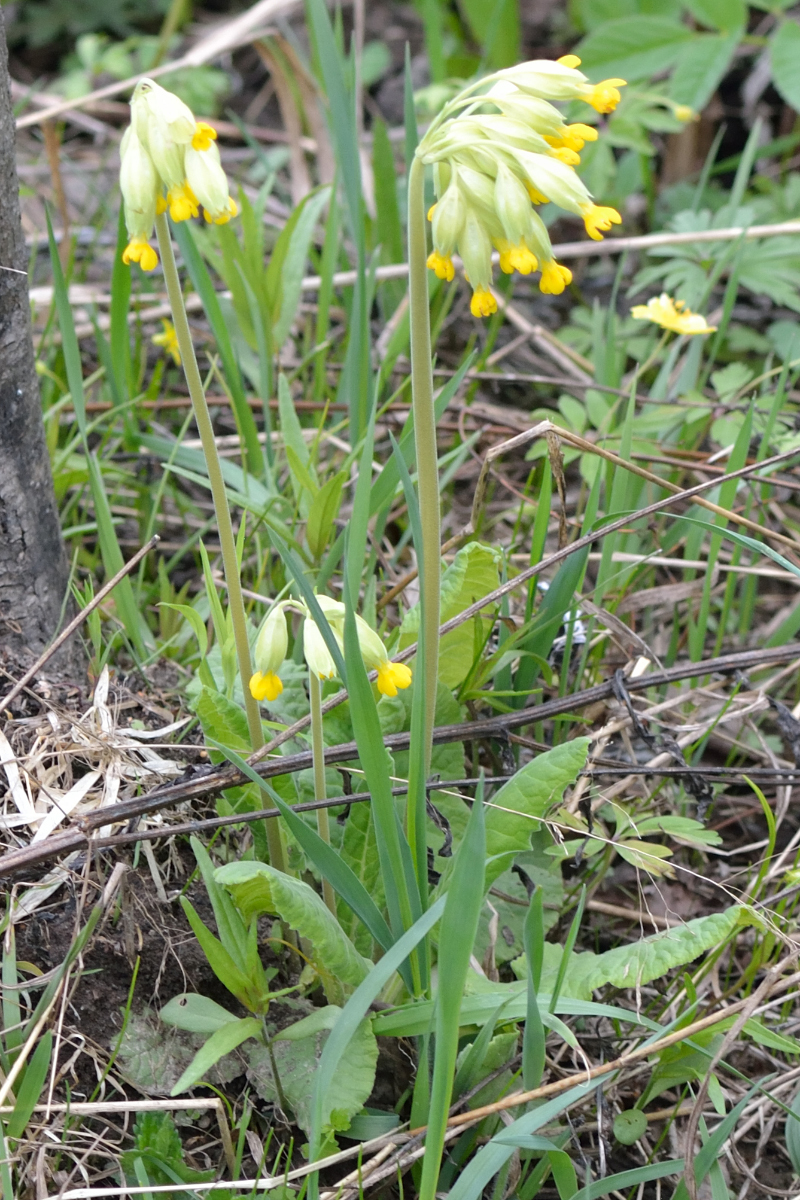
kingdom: Plantae
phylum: Tracheophyta
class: Magnoliopsida
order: Ericales
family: Primulaceae
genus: Primula
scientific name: Primula veris
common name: Cowslip
